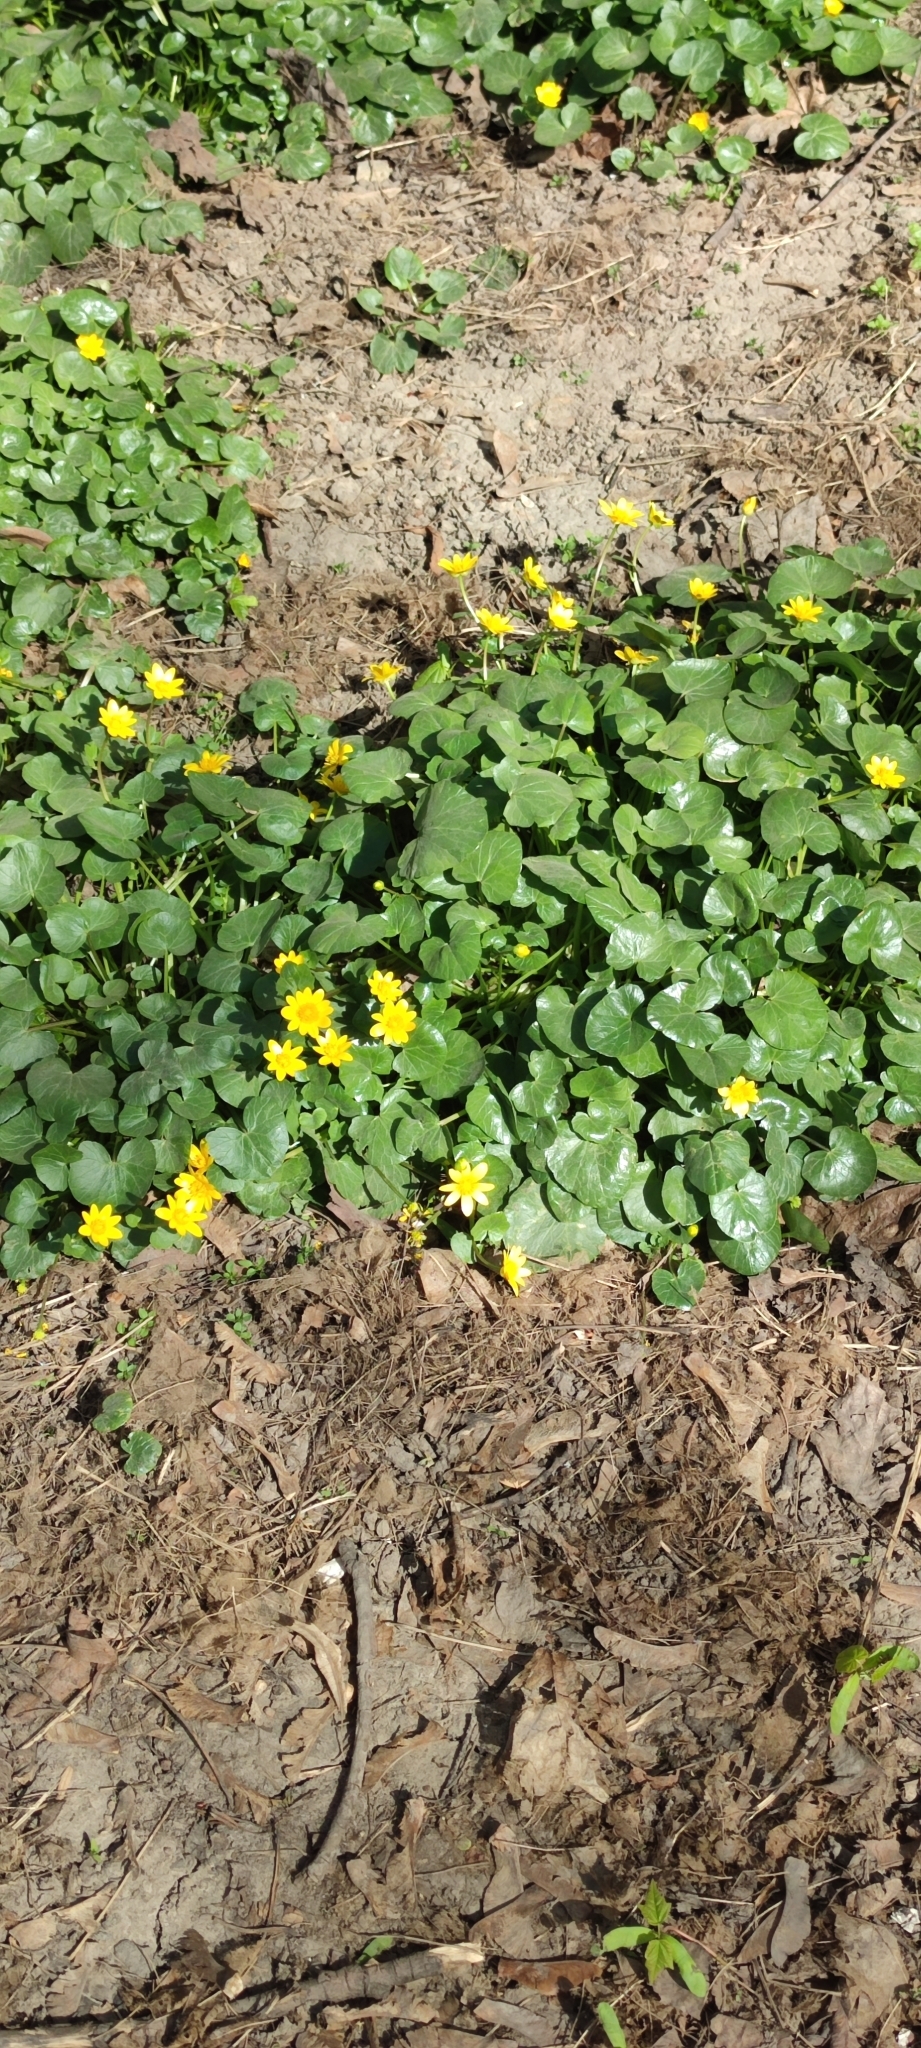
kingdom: Plantae
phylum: Tracheophyta
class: Magnoliopsida
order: Ranunculales
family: Ranunculaceae
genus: Ficaria
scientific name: Ficaria verna
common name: Lesser celandine
